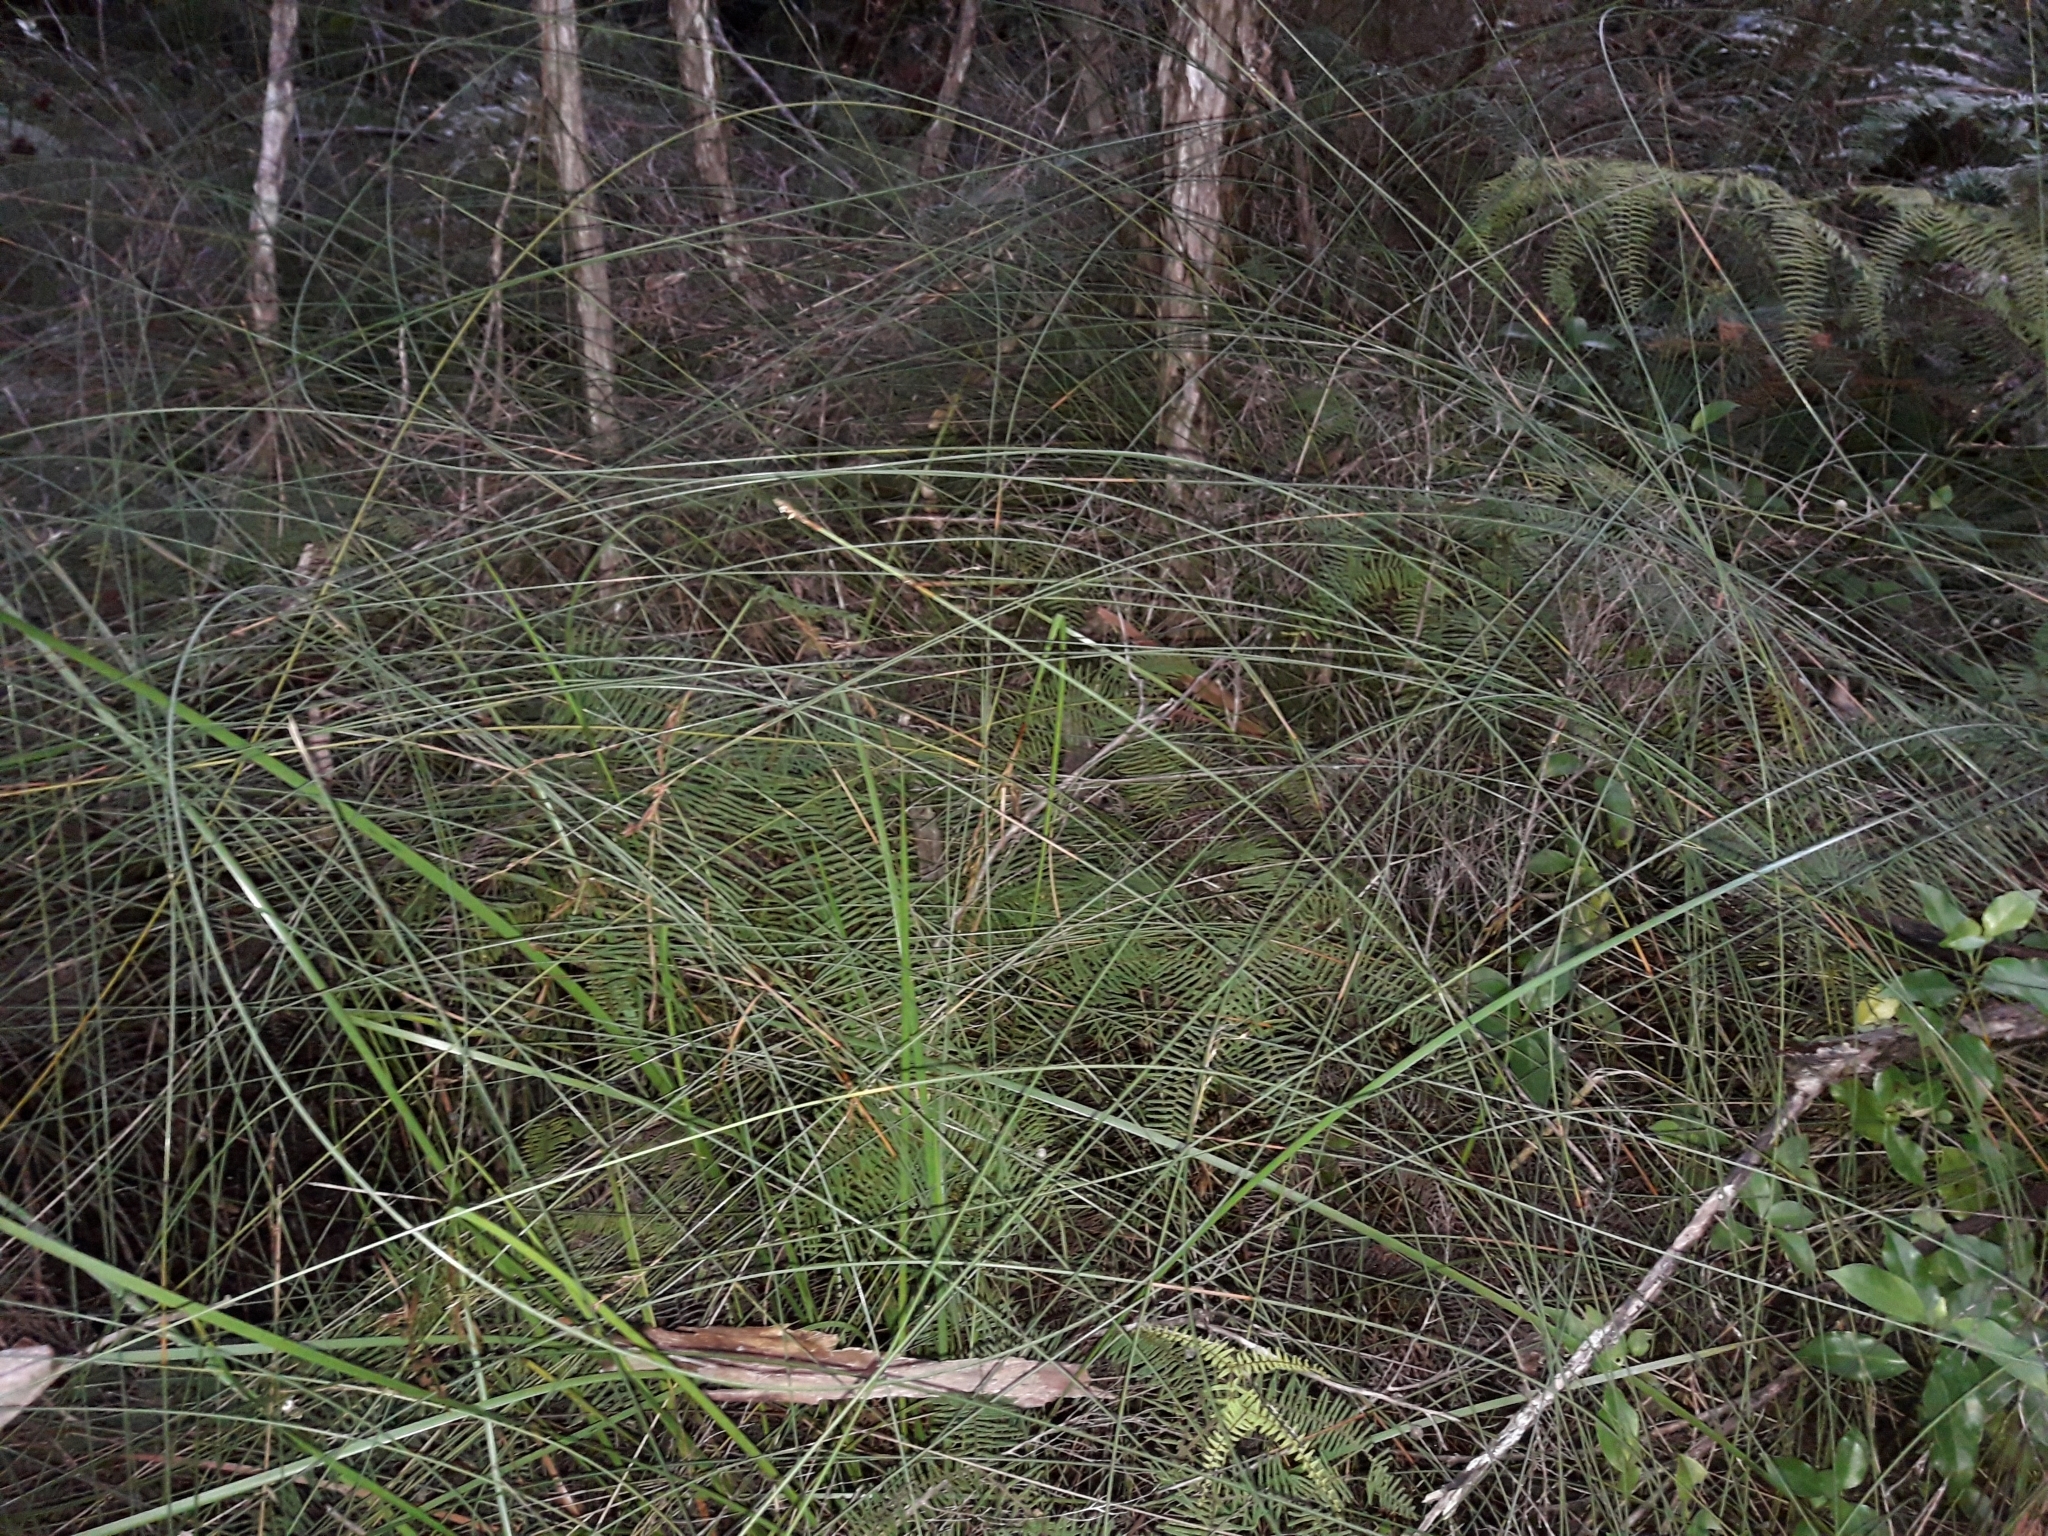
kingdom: Plantae
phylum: Tracheophyta
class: Liliopsida
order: Poales
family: Cyperaceae
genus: Machaerina
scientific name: Machaerina juncea
